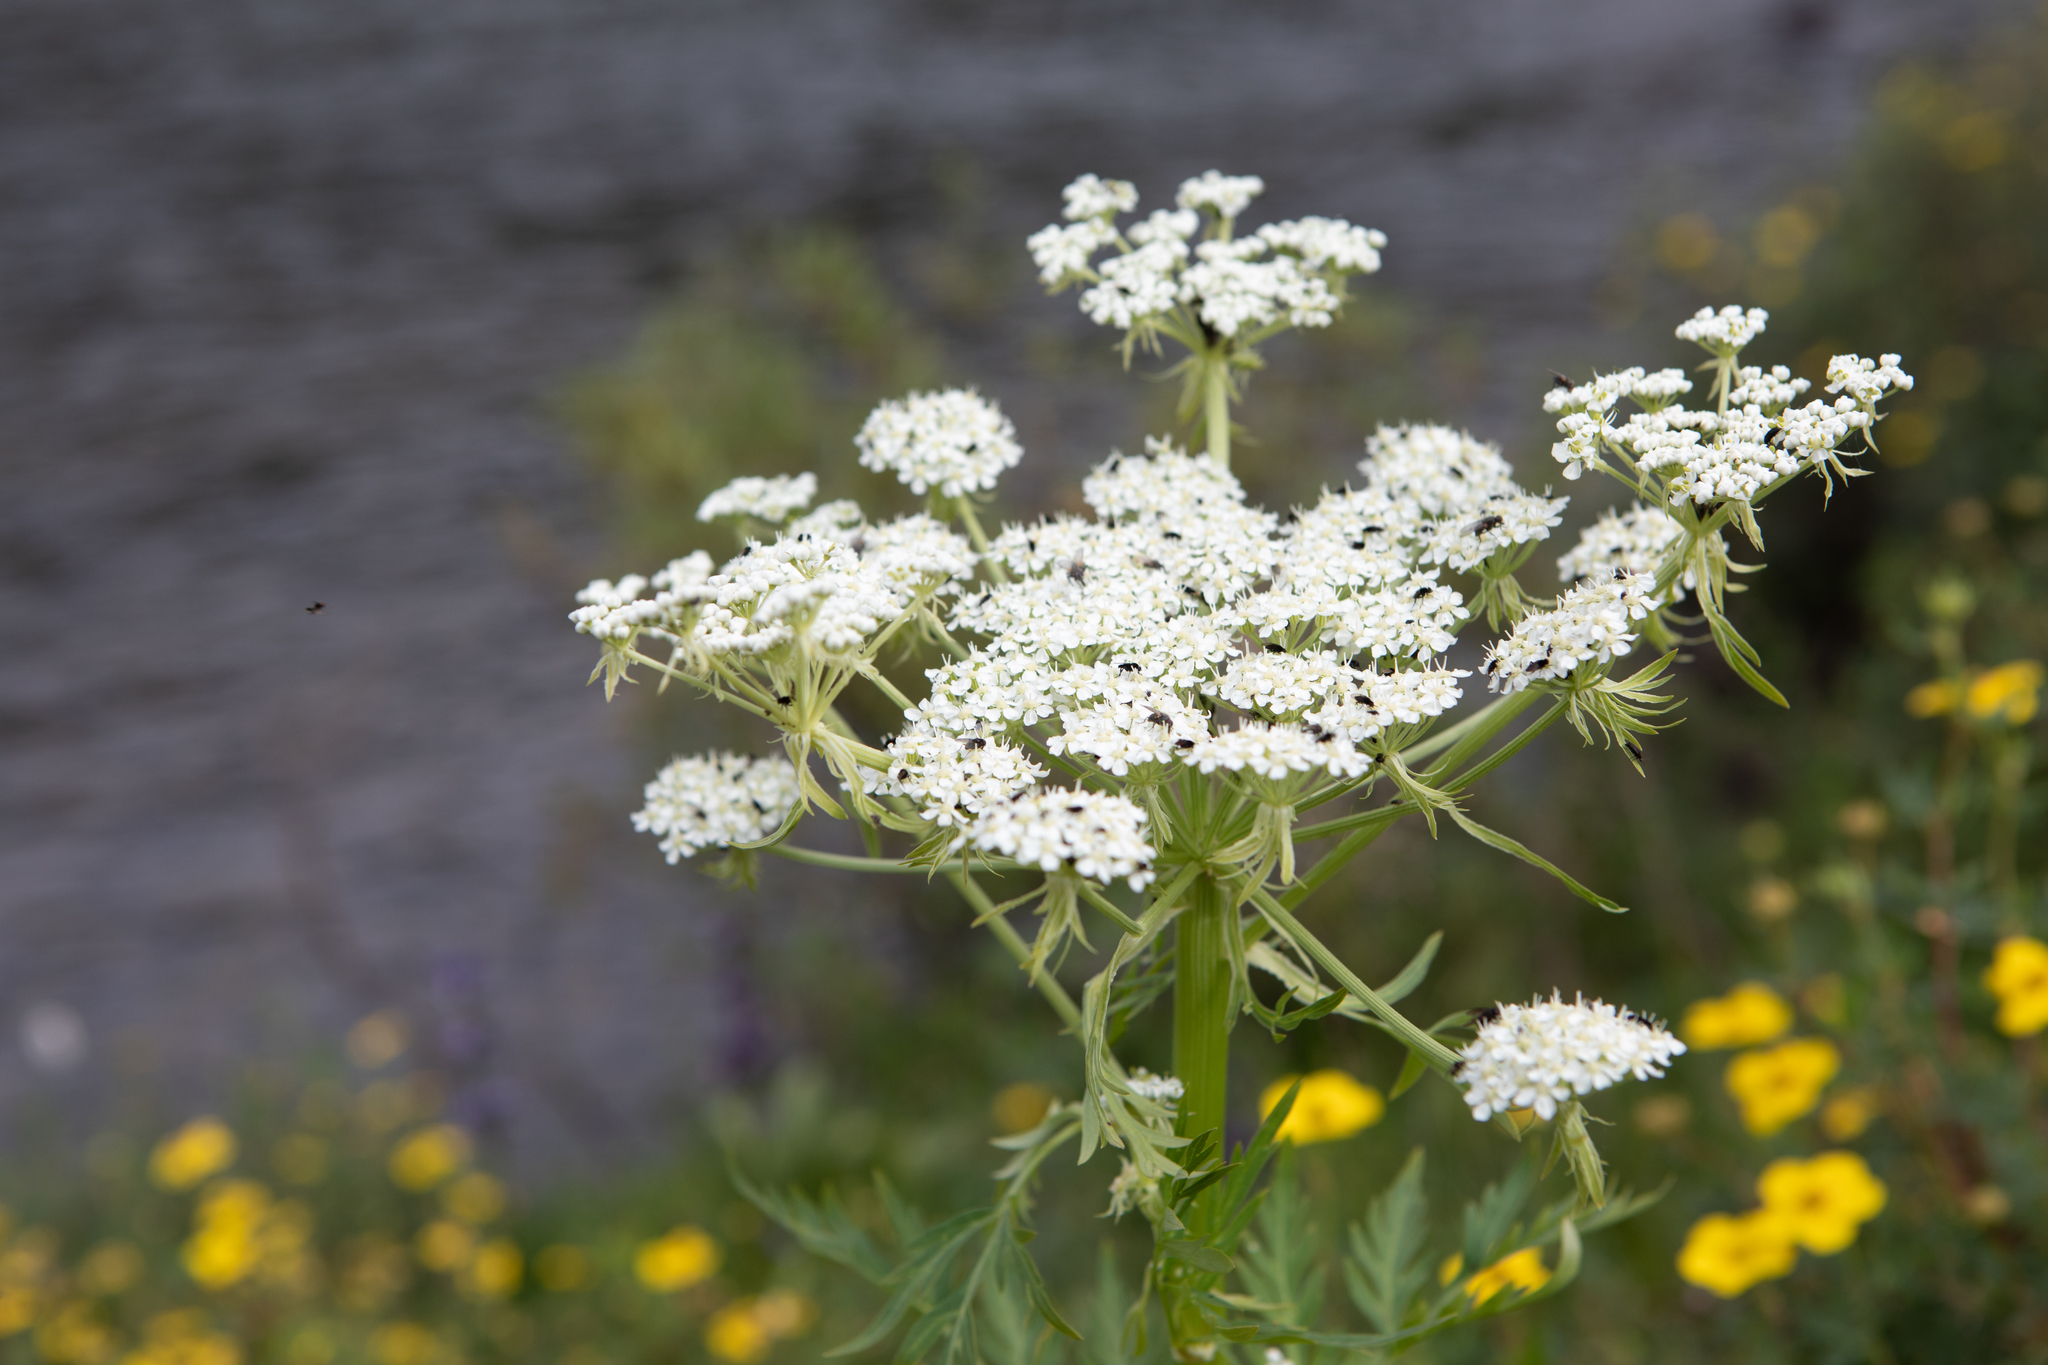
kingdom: Plantae
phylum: Tracheophyta
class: Magnoliopsida
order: Apiales
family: Apiaceae
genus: Pleurospermum
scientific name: Pleurospermum uralense
